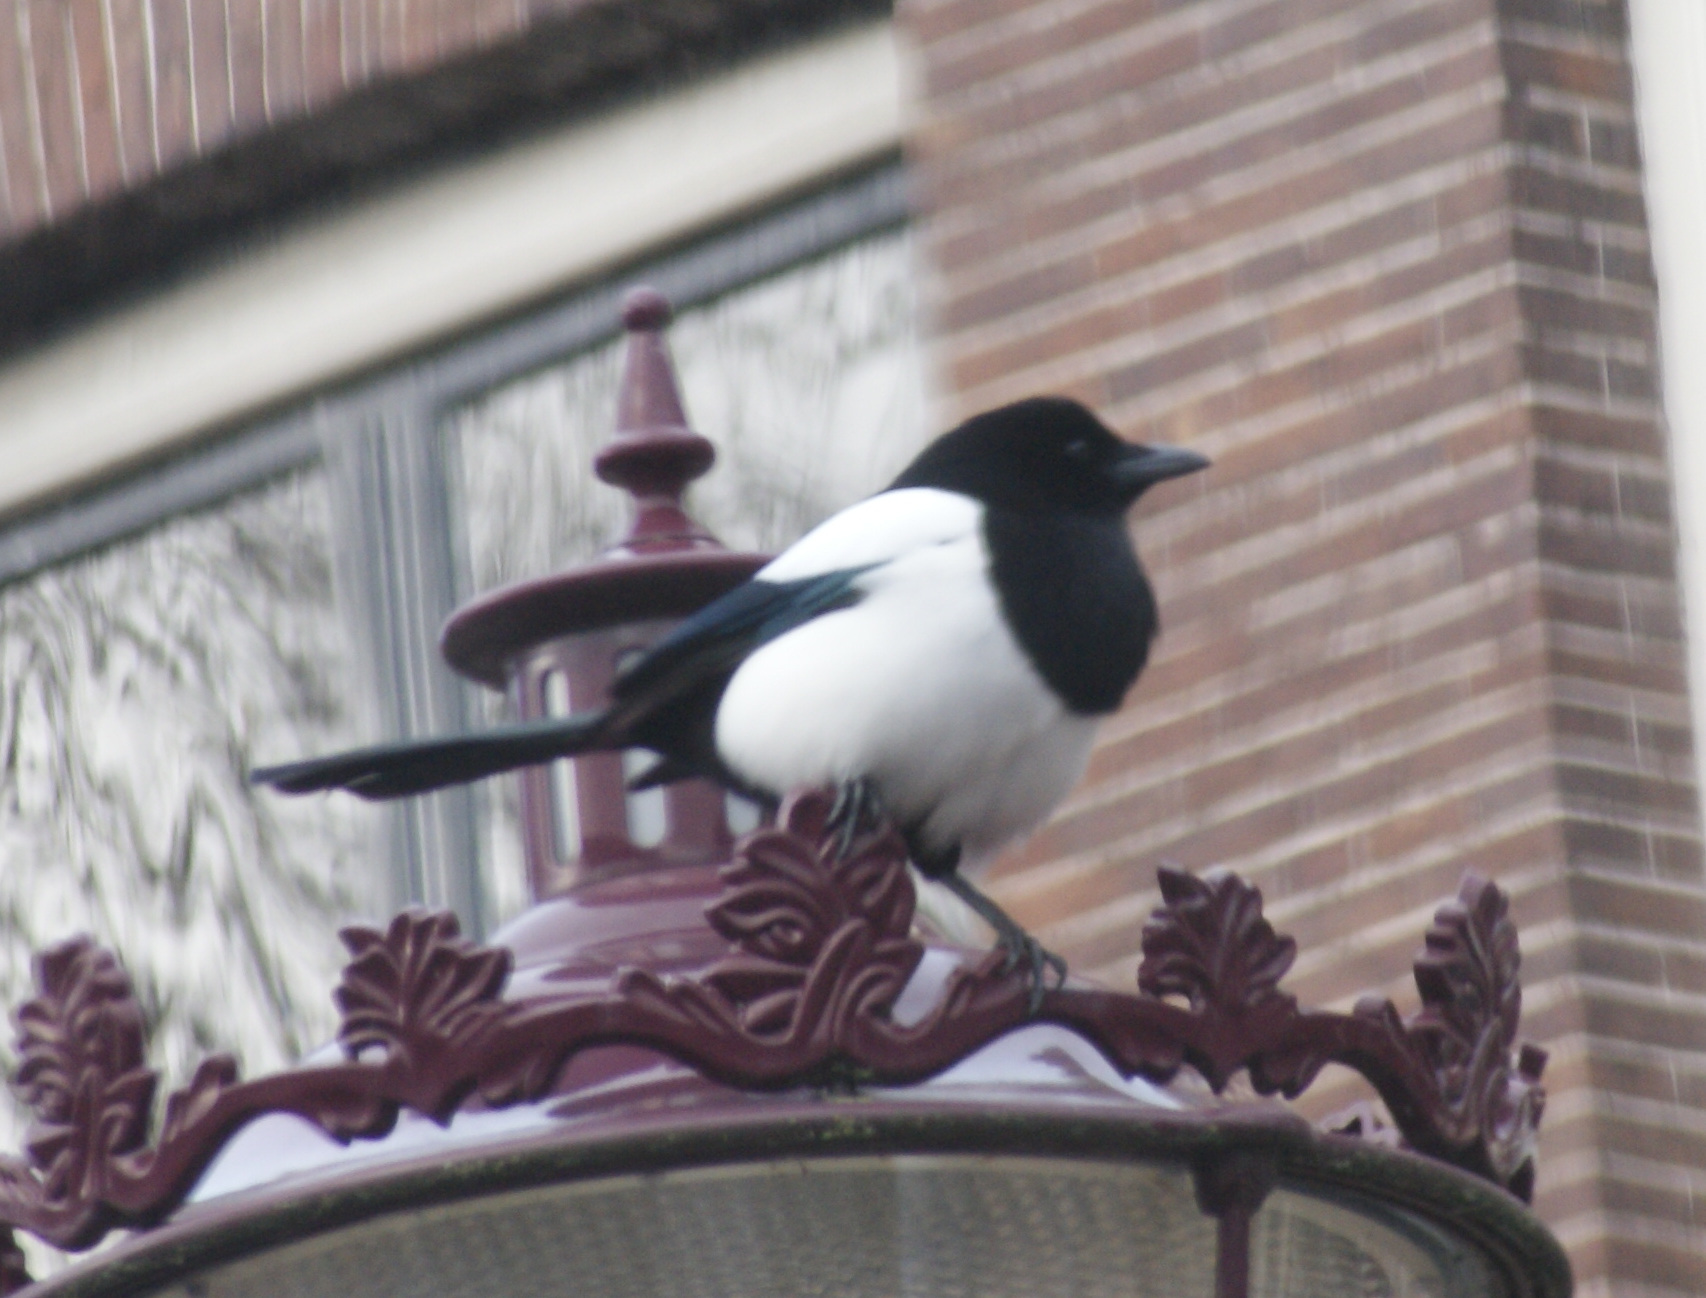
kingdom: Animalia
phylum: Chordata
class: Aves
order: Passeriformes
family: Corvidae
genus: Pica
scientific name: Pica pica
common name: Eurasian magpie
